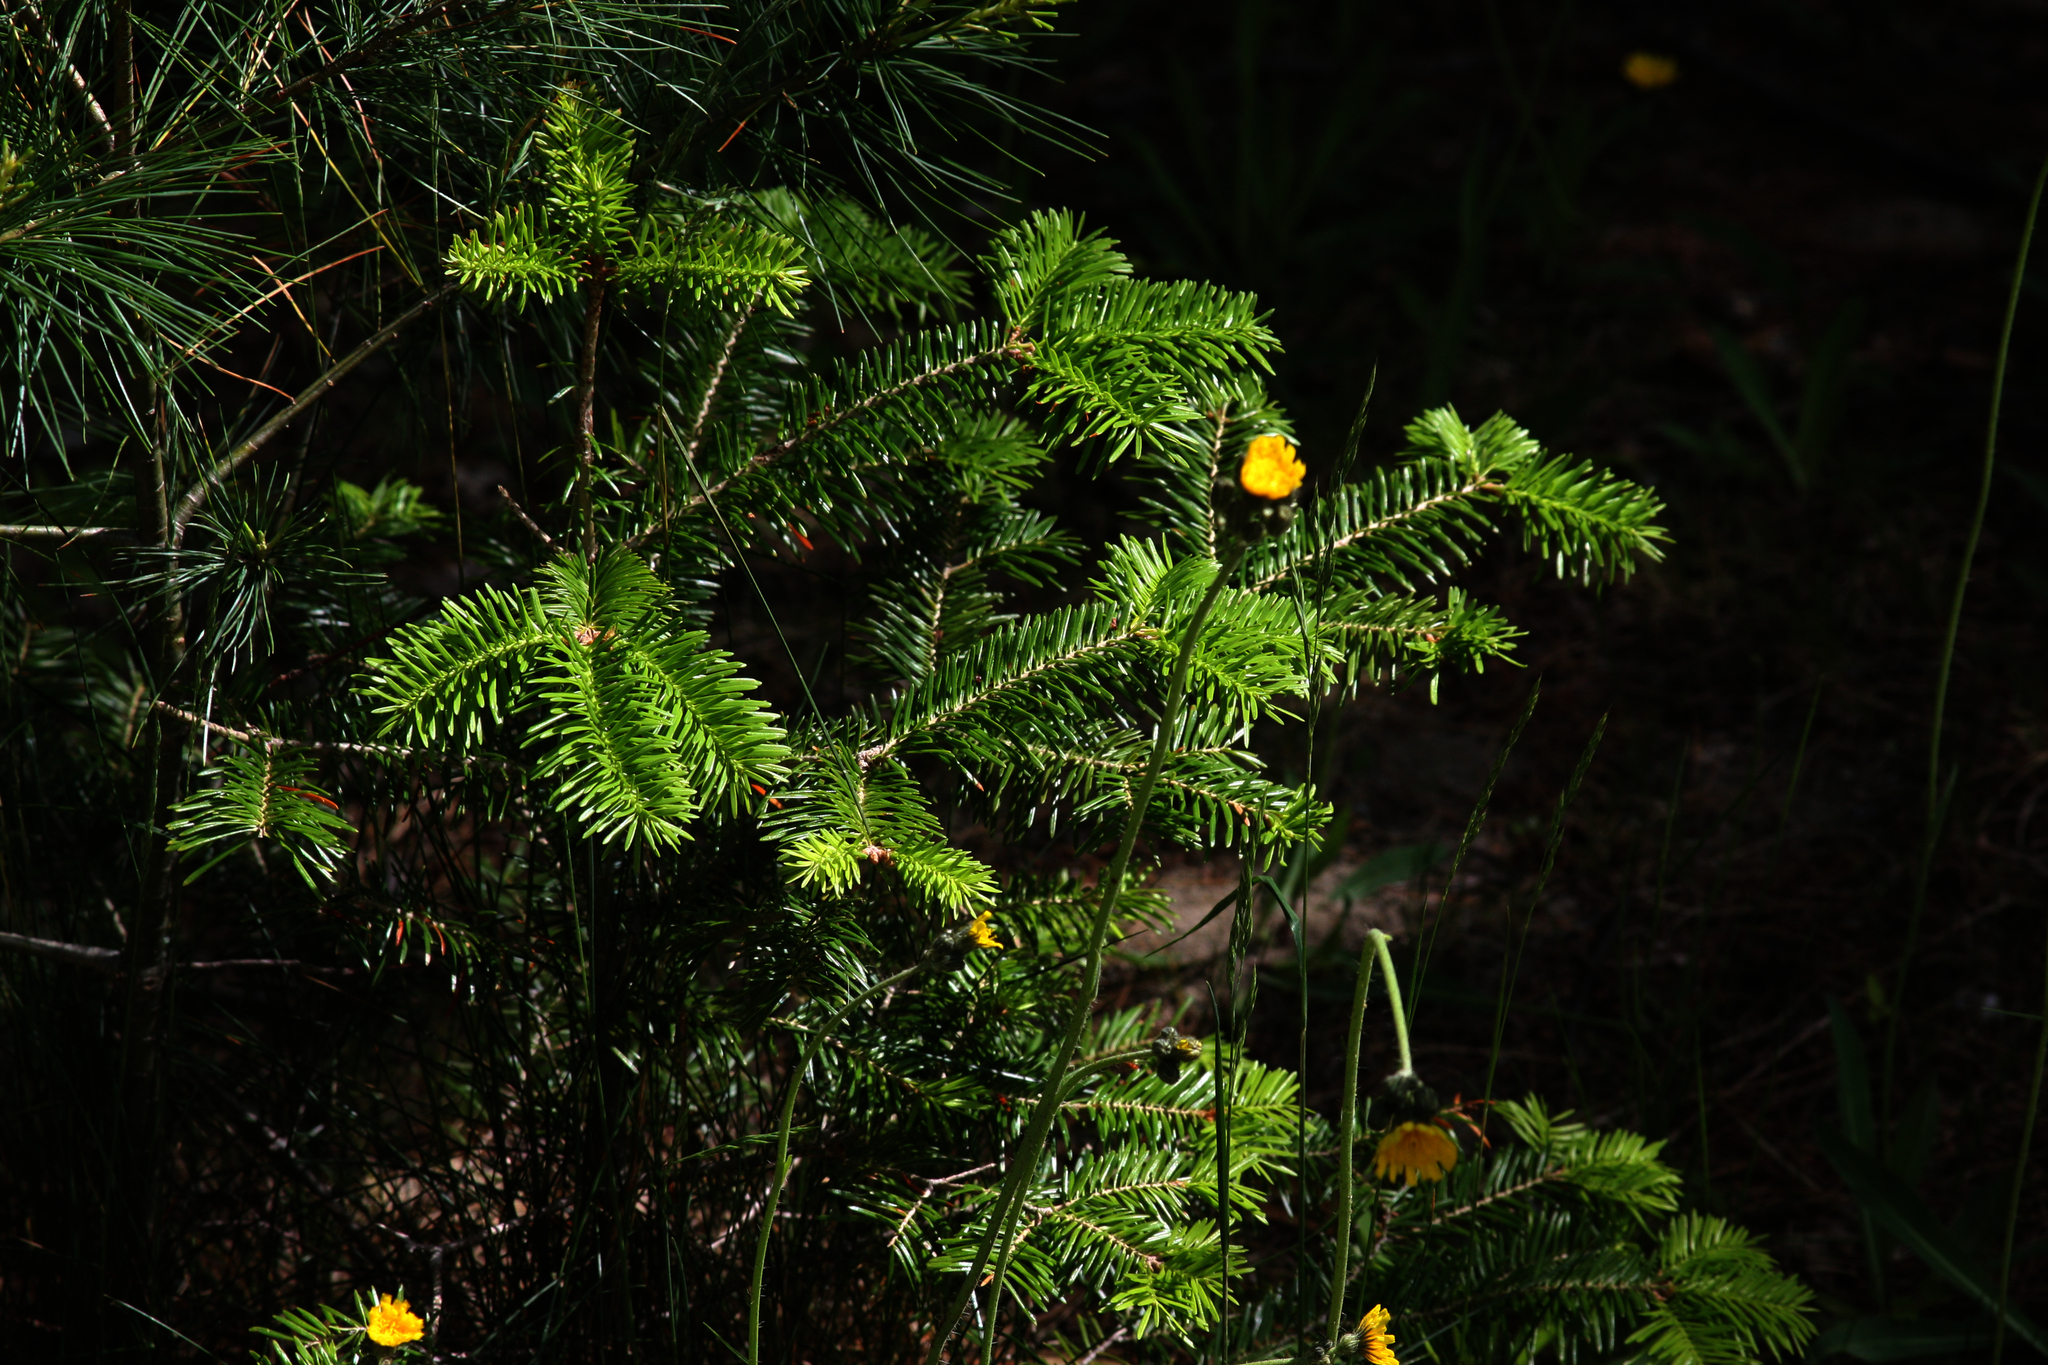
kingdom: Plantae
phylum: Tracheophyta
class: Pinopsida
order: Pinales
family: Pinaceae
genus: Abies
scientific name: Abies balsamea
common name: Balsam fir
